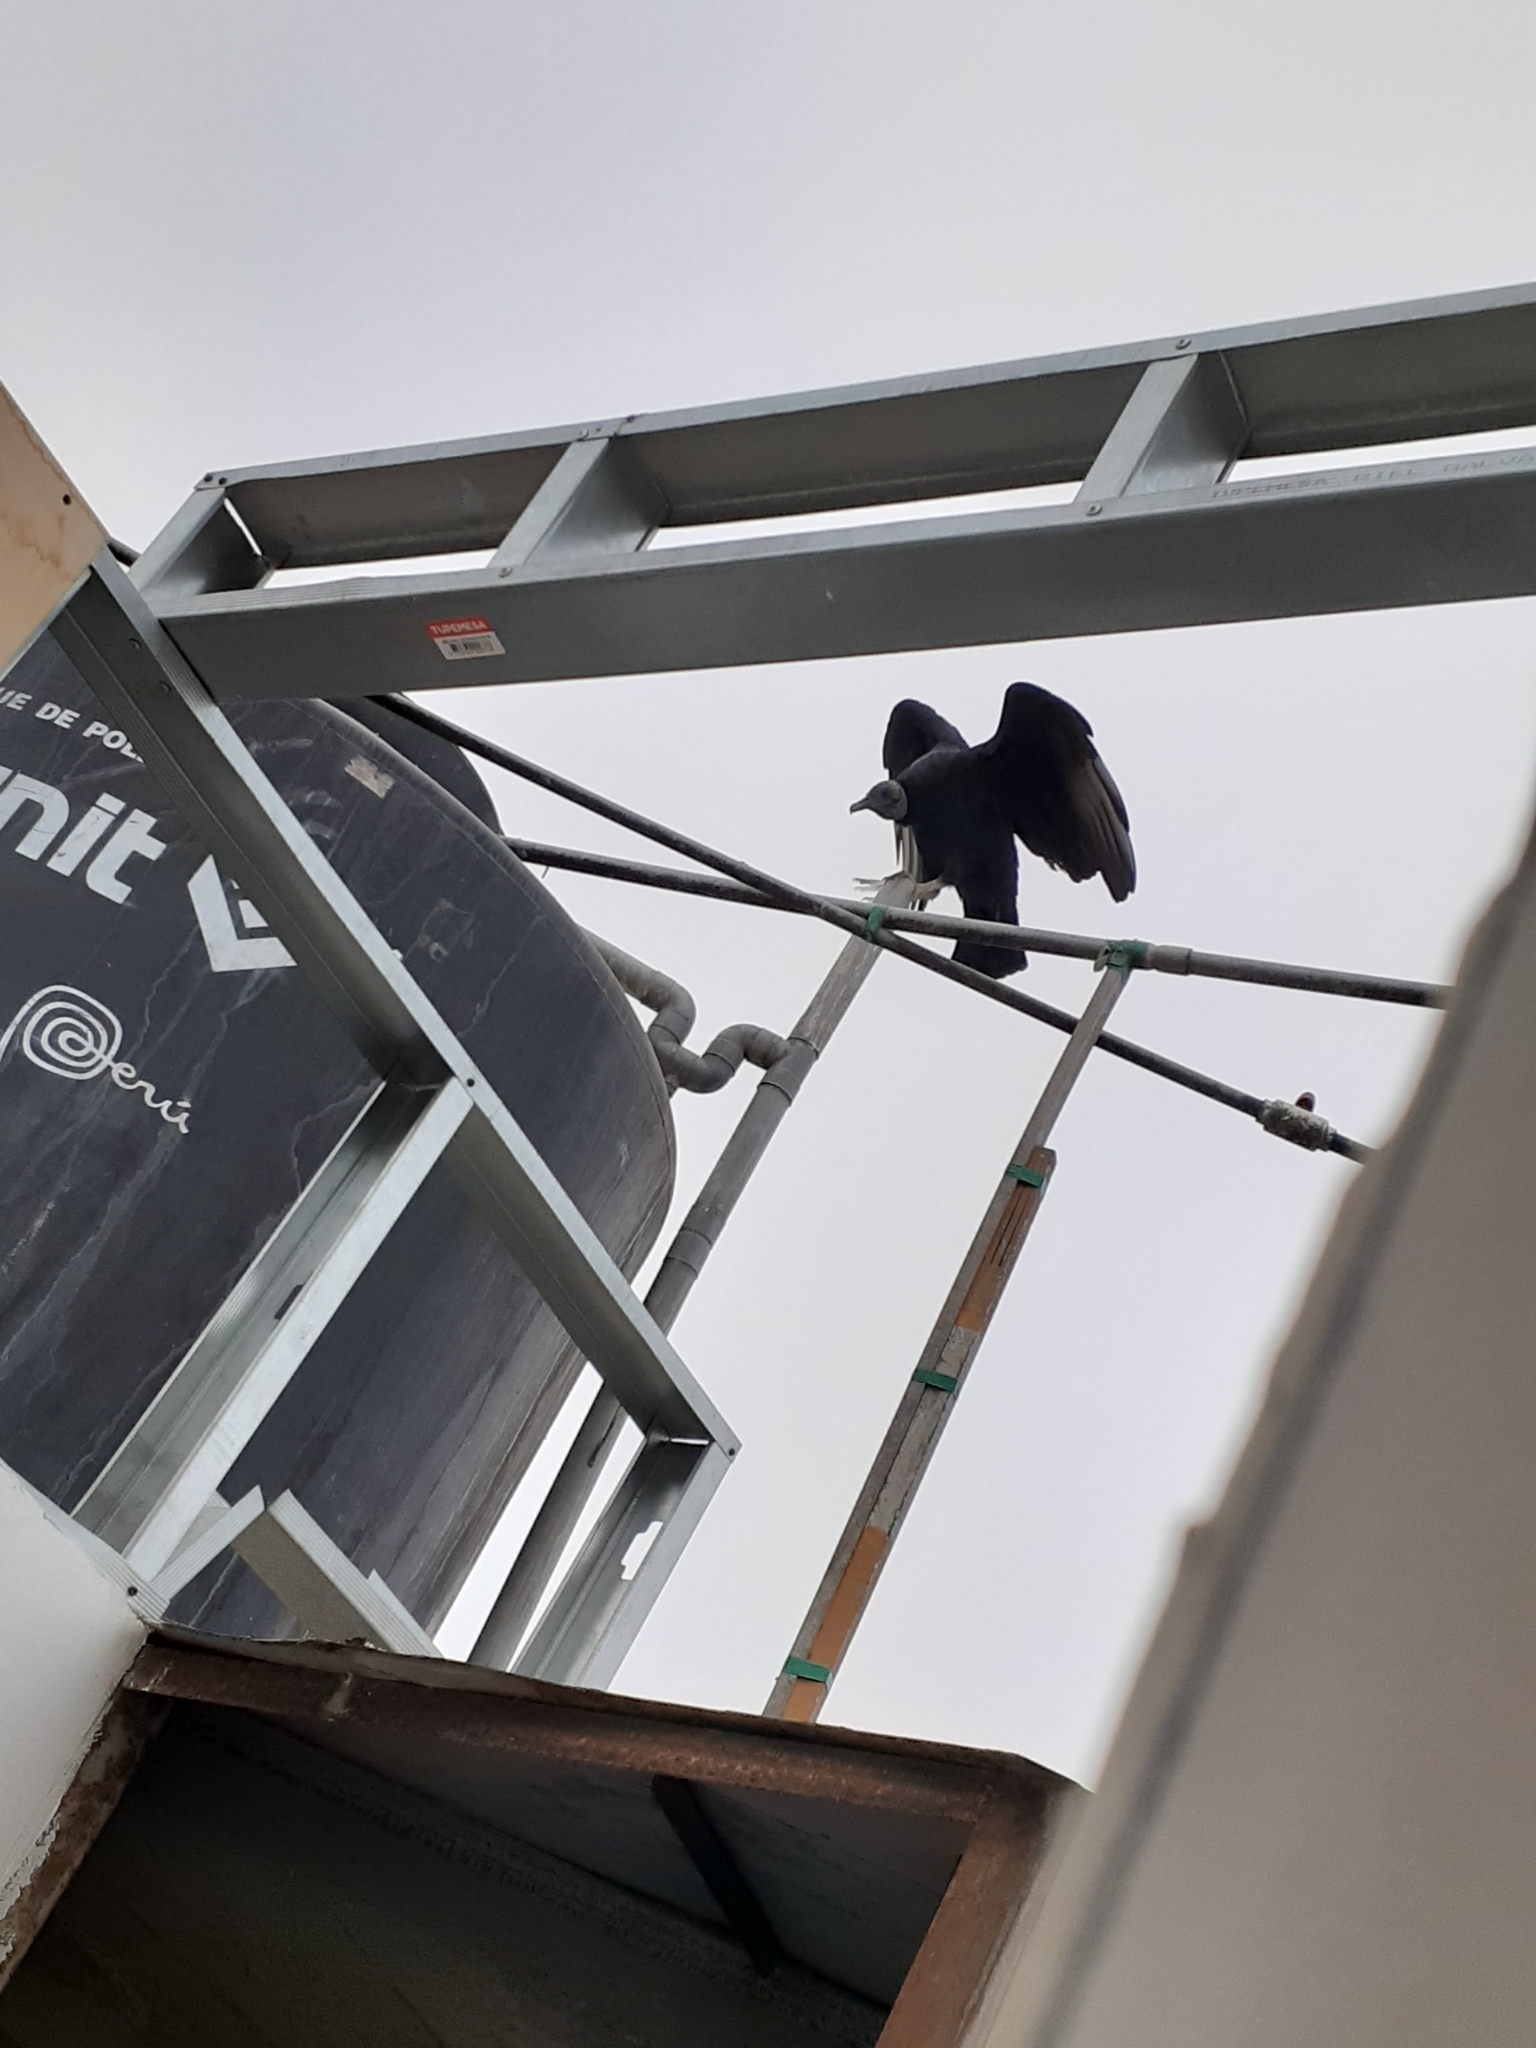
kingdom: Animalia
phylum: Chordata
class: Aves
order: Accipitriformes
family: Cathartidae
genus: Coragyps
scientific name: Coragyps atratus
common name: Black vulture
